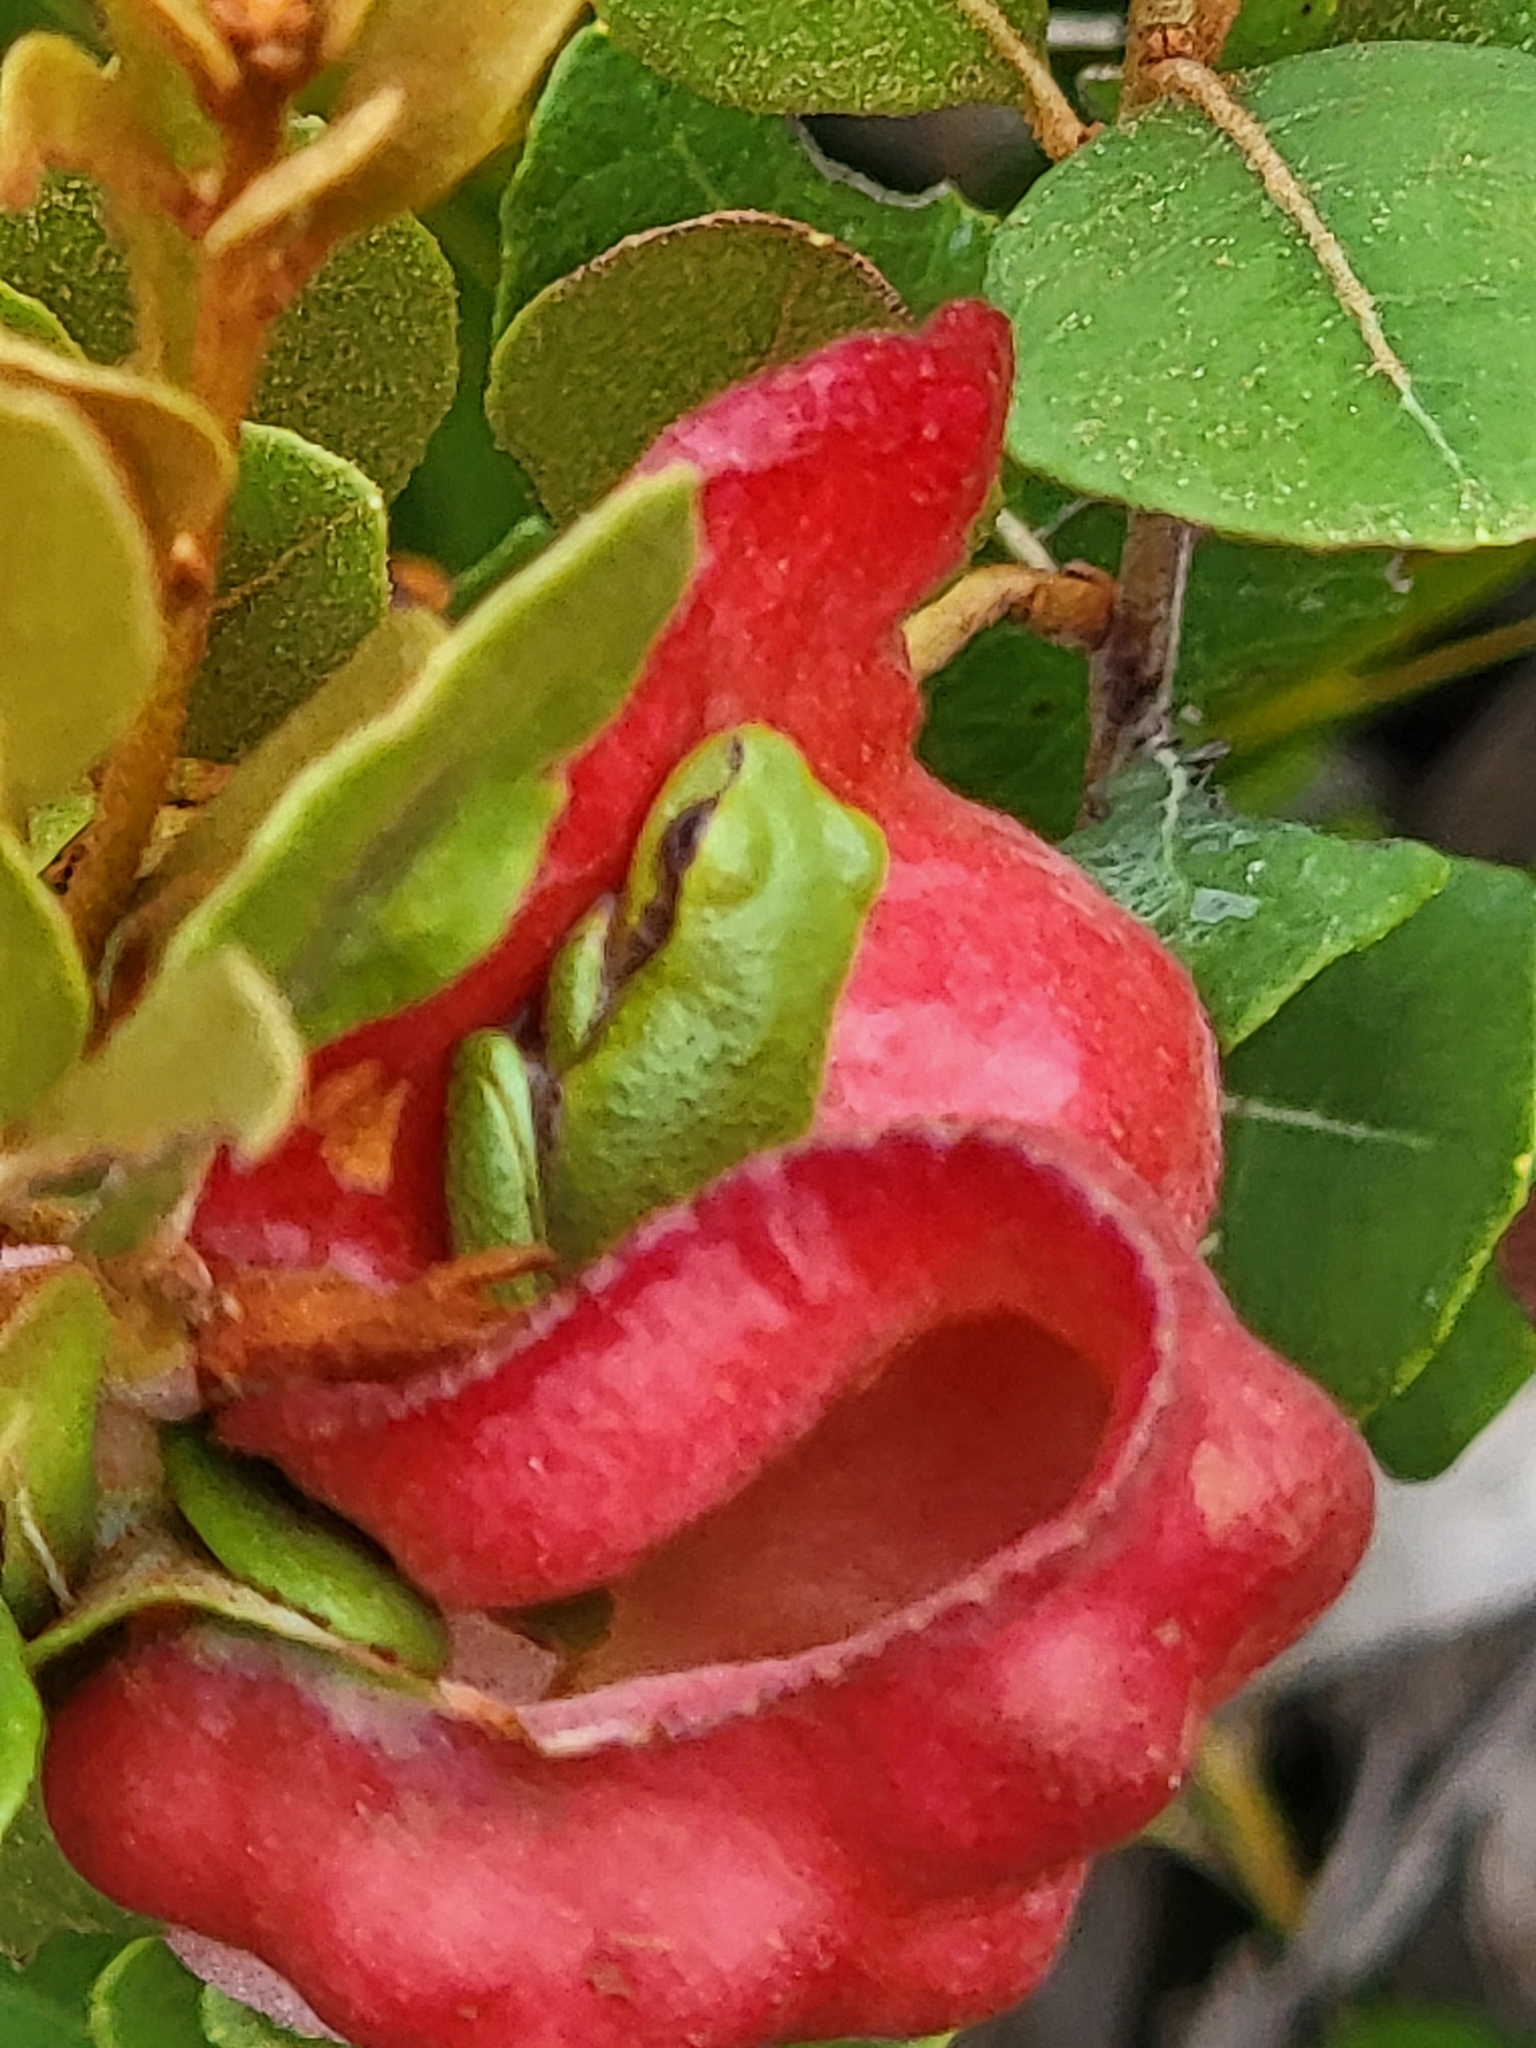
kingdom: Animalia
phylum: Chordata
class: Amphibia
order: Anura
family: Hylidae
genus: Hyla
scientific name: Hyla femoralis
